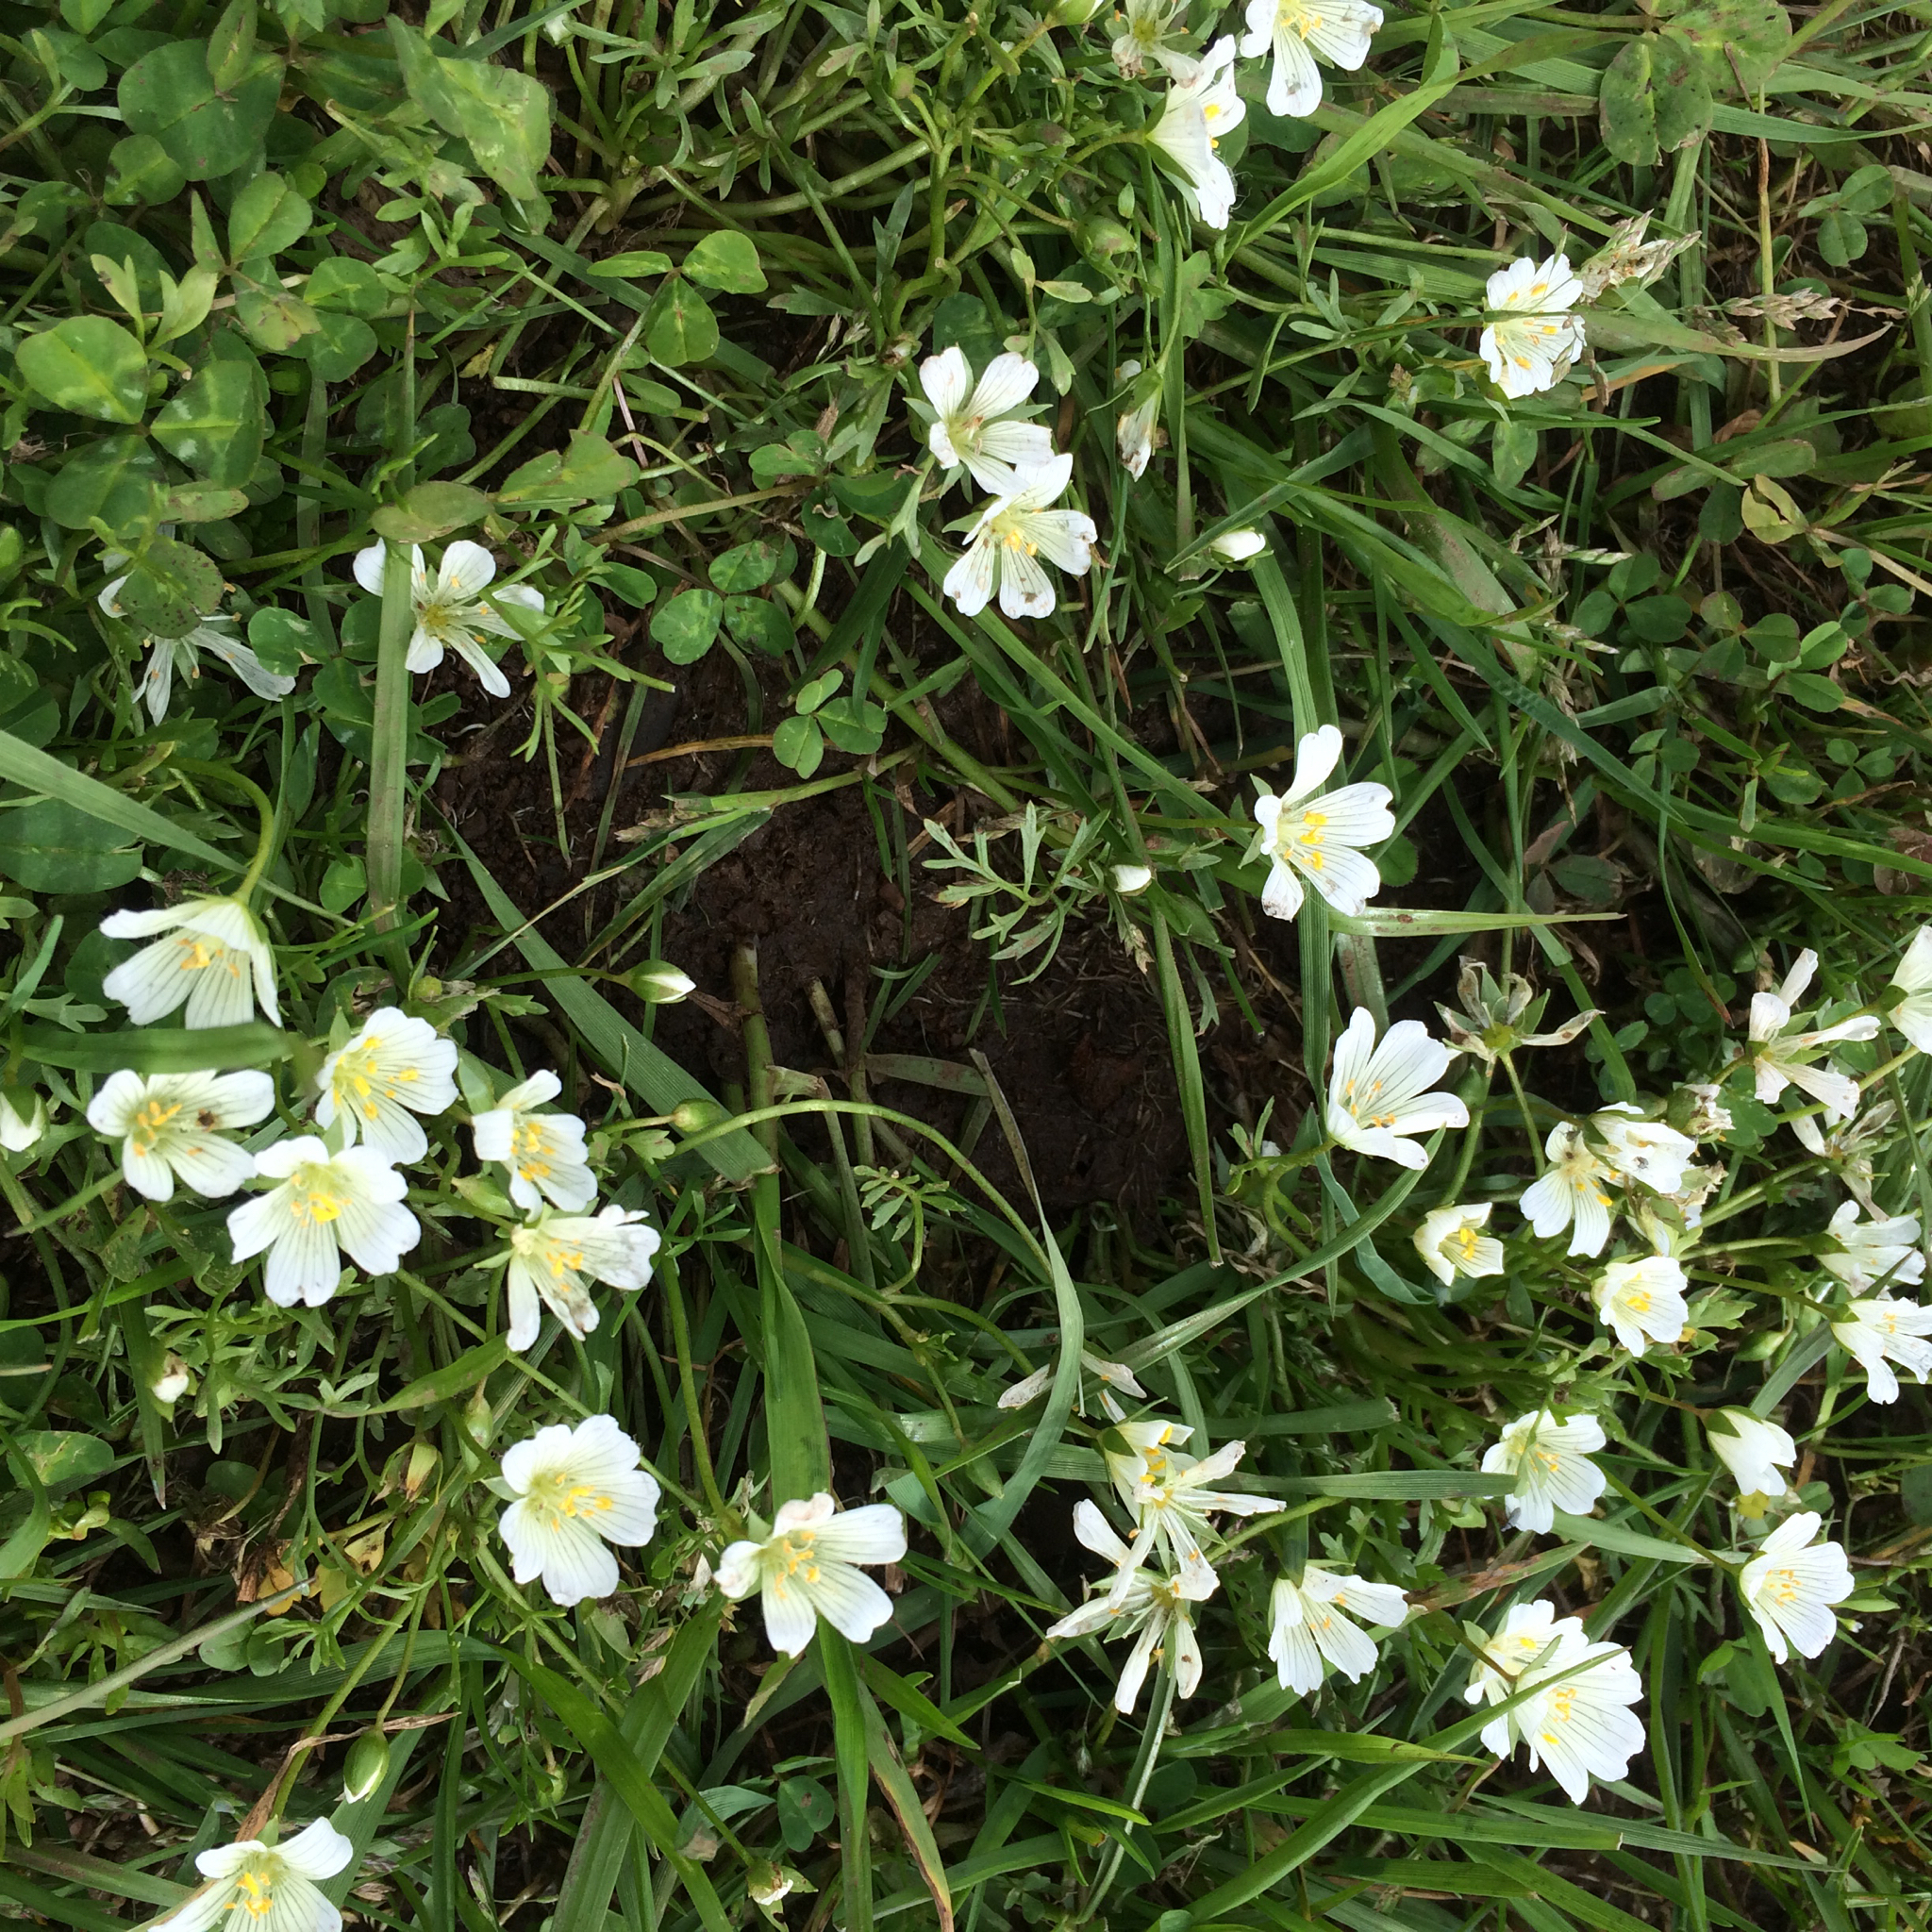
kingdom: Plantae
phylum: Tracheophyta
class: Magnoliopsida
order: Brassicales
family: Limnanthaceae
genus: Limnanthes
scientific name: Limnanthes douglasii
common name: Meadow-foam
